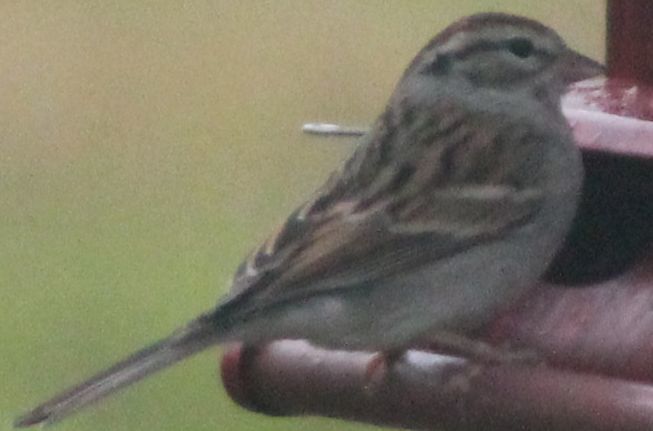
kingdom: Animalia
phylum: Chordata
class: Aves
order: Passeriformes
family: Passerellidae
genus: Spizella
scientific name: Spizella passerina
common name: Chipping sparrow
